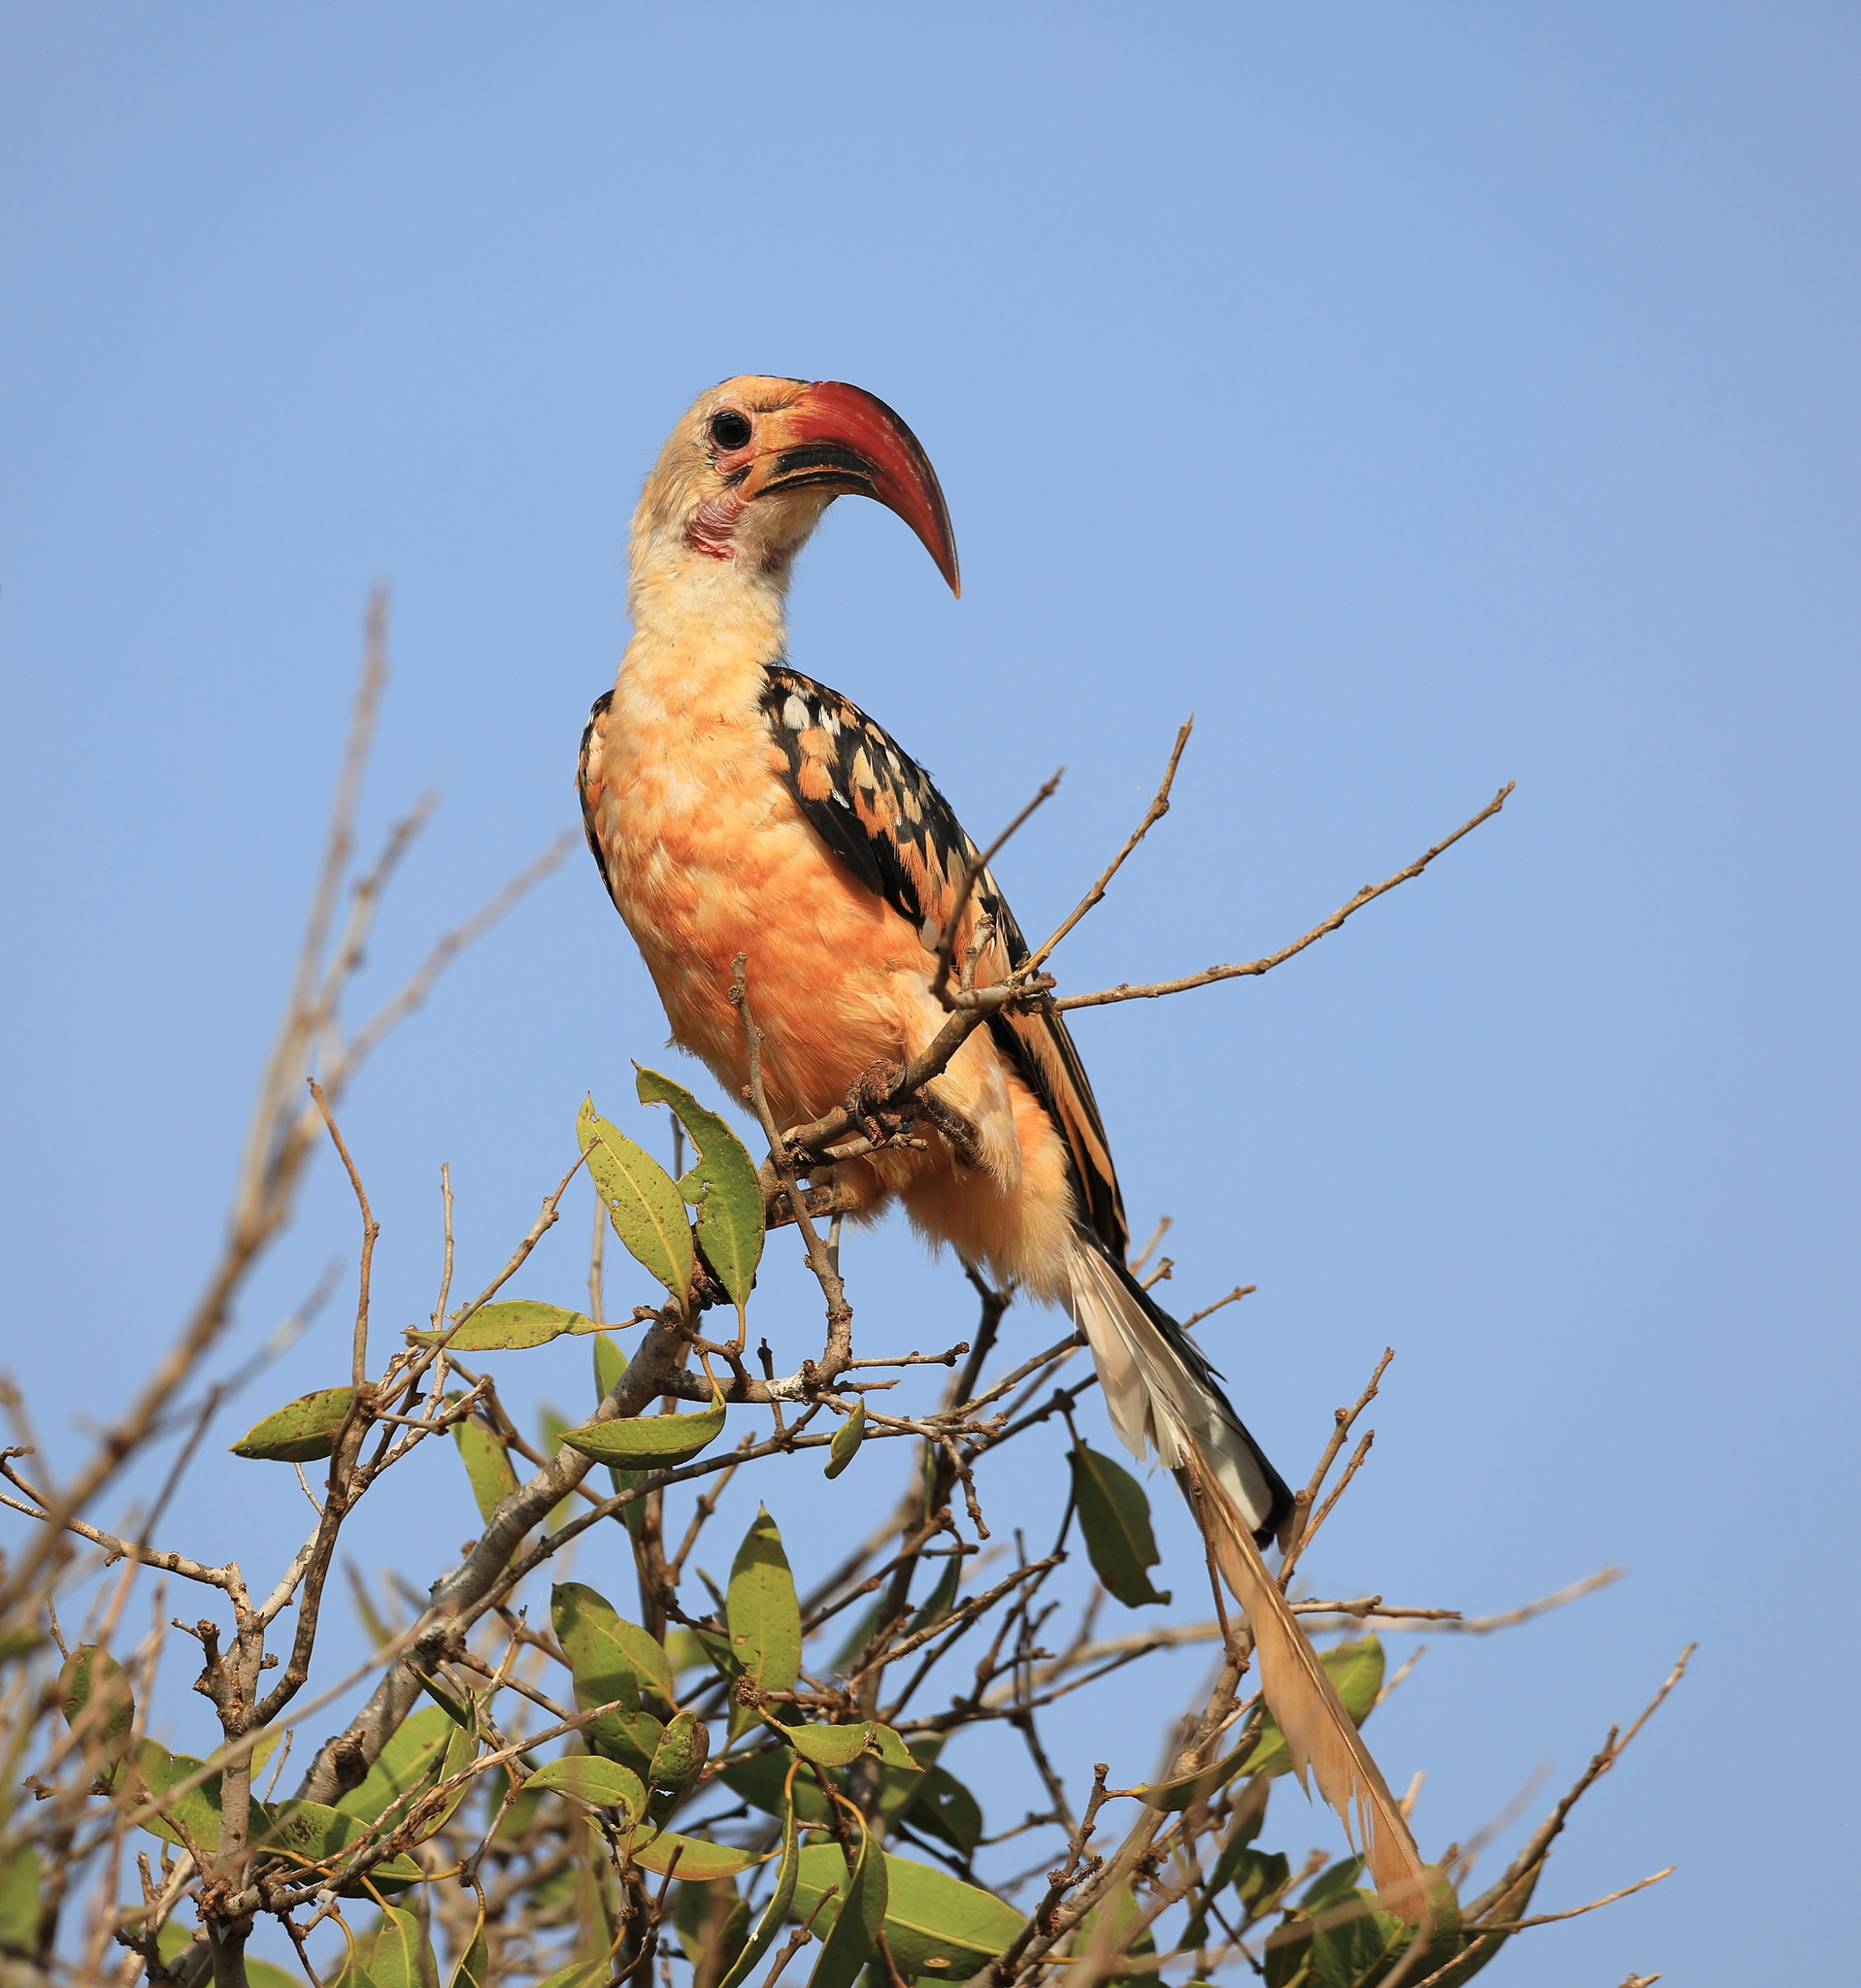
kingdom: Animalia
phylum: Chordata
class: Aves
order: Bucerotiformes
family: Bucerotidae
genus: Tockus
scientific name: Tockus erythrorhynchus
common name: Northern red-billed hornbill
